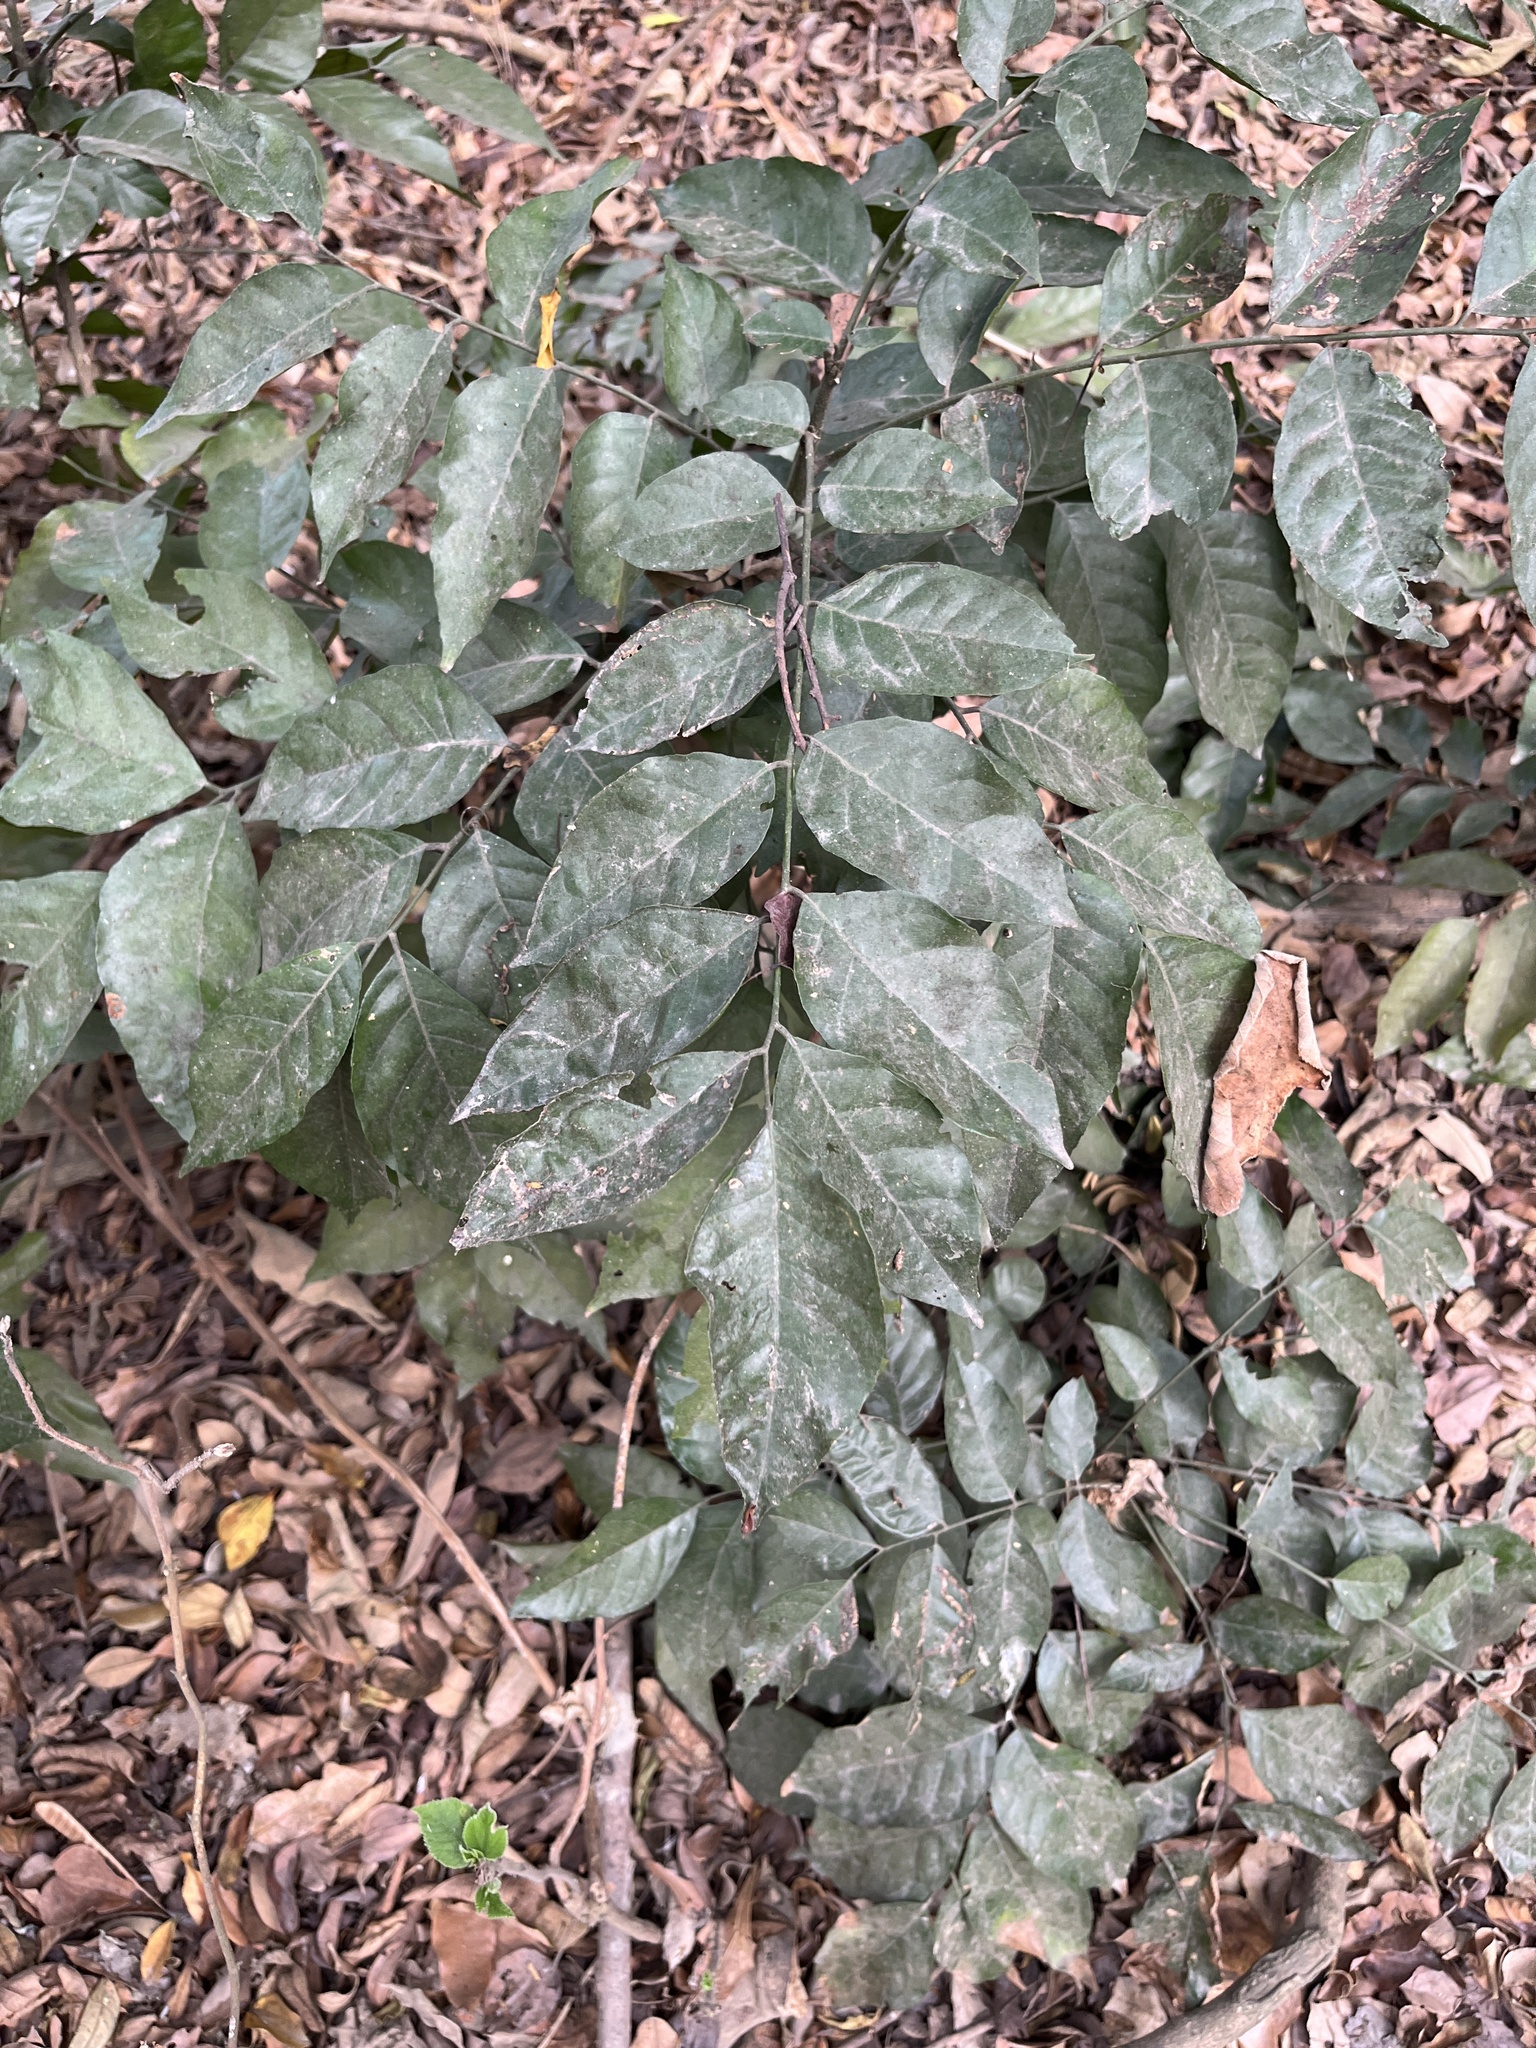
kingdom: Plantae
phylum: Tracheophyta
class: Magnoliopsida
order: Sapindales
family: Rutaceae
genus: Clausena
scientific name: Clausena lansium
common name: Wampi
